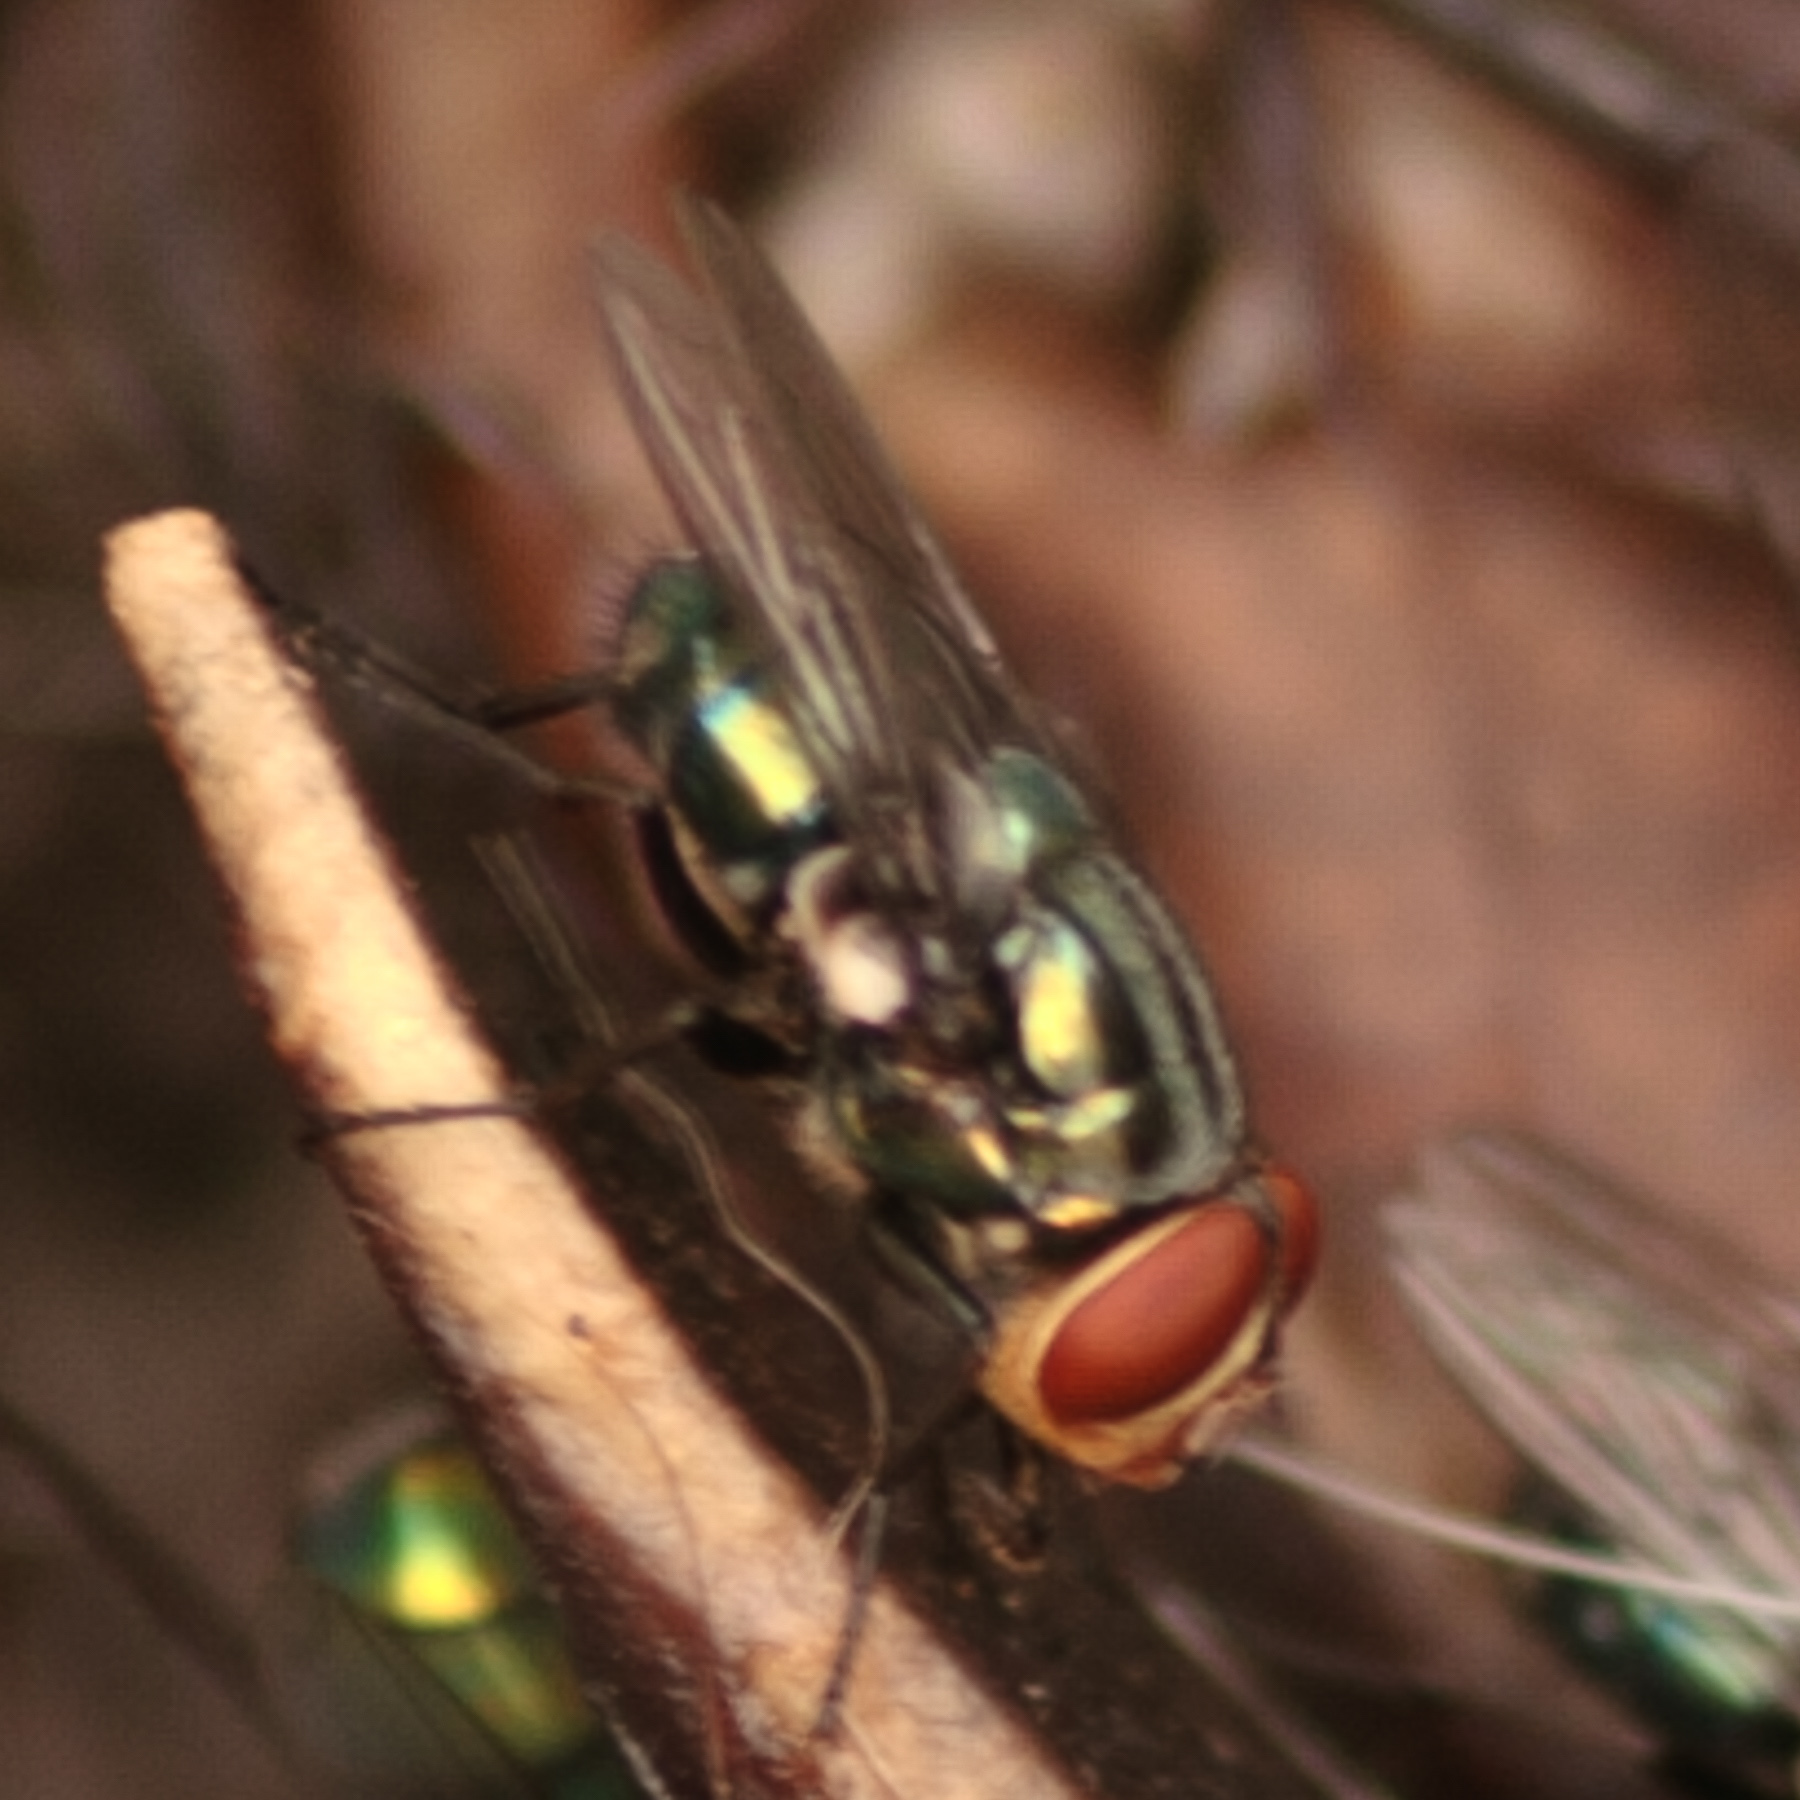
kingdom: Animalia
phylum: Arthropoda
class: Insecta
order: Diptera
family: Calliphoridae
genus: Cochliomyia
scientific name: Cochliomyia macellaria
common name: Secondary screwworm
